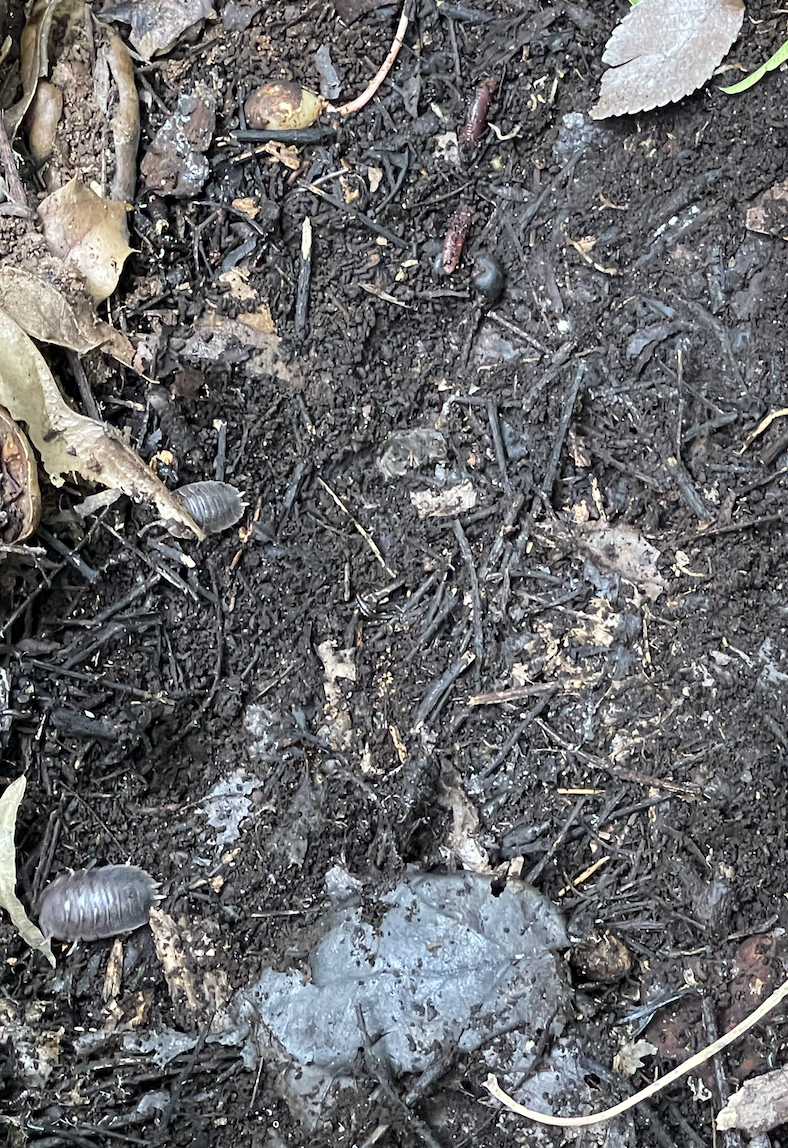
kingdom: Animalia
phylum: Arthropoda
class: Malacostraca
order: Isopoda
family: Porcellionidae
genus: Porcellio
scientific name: Porcellio dilatatus
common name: Isopod
